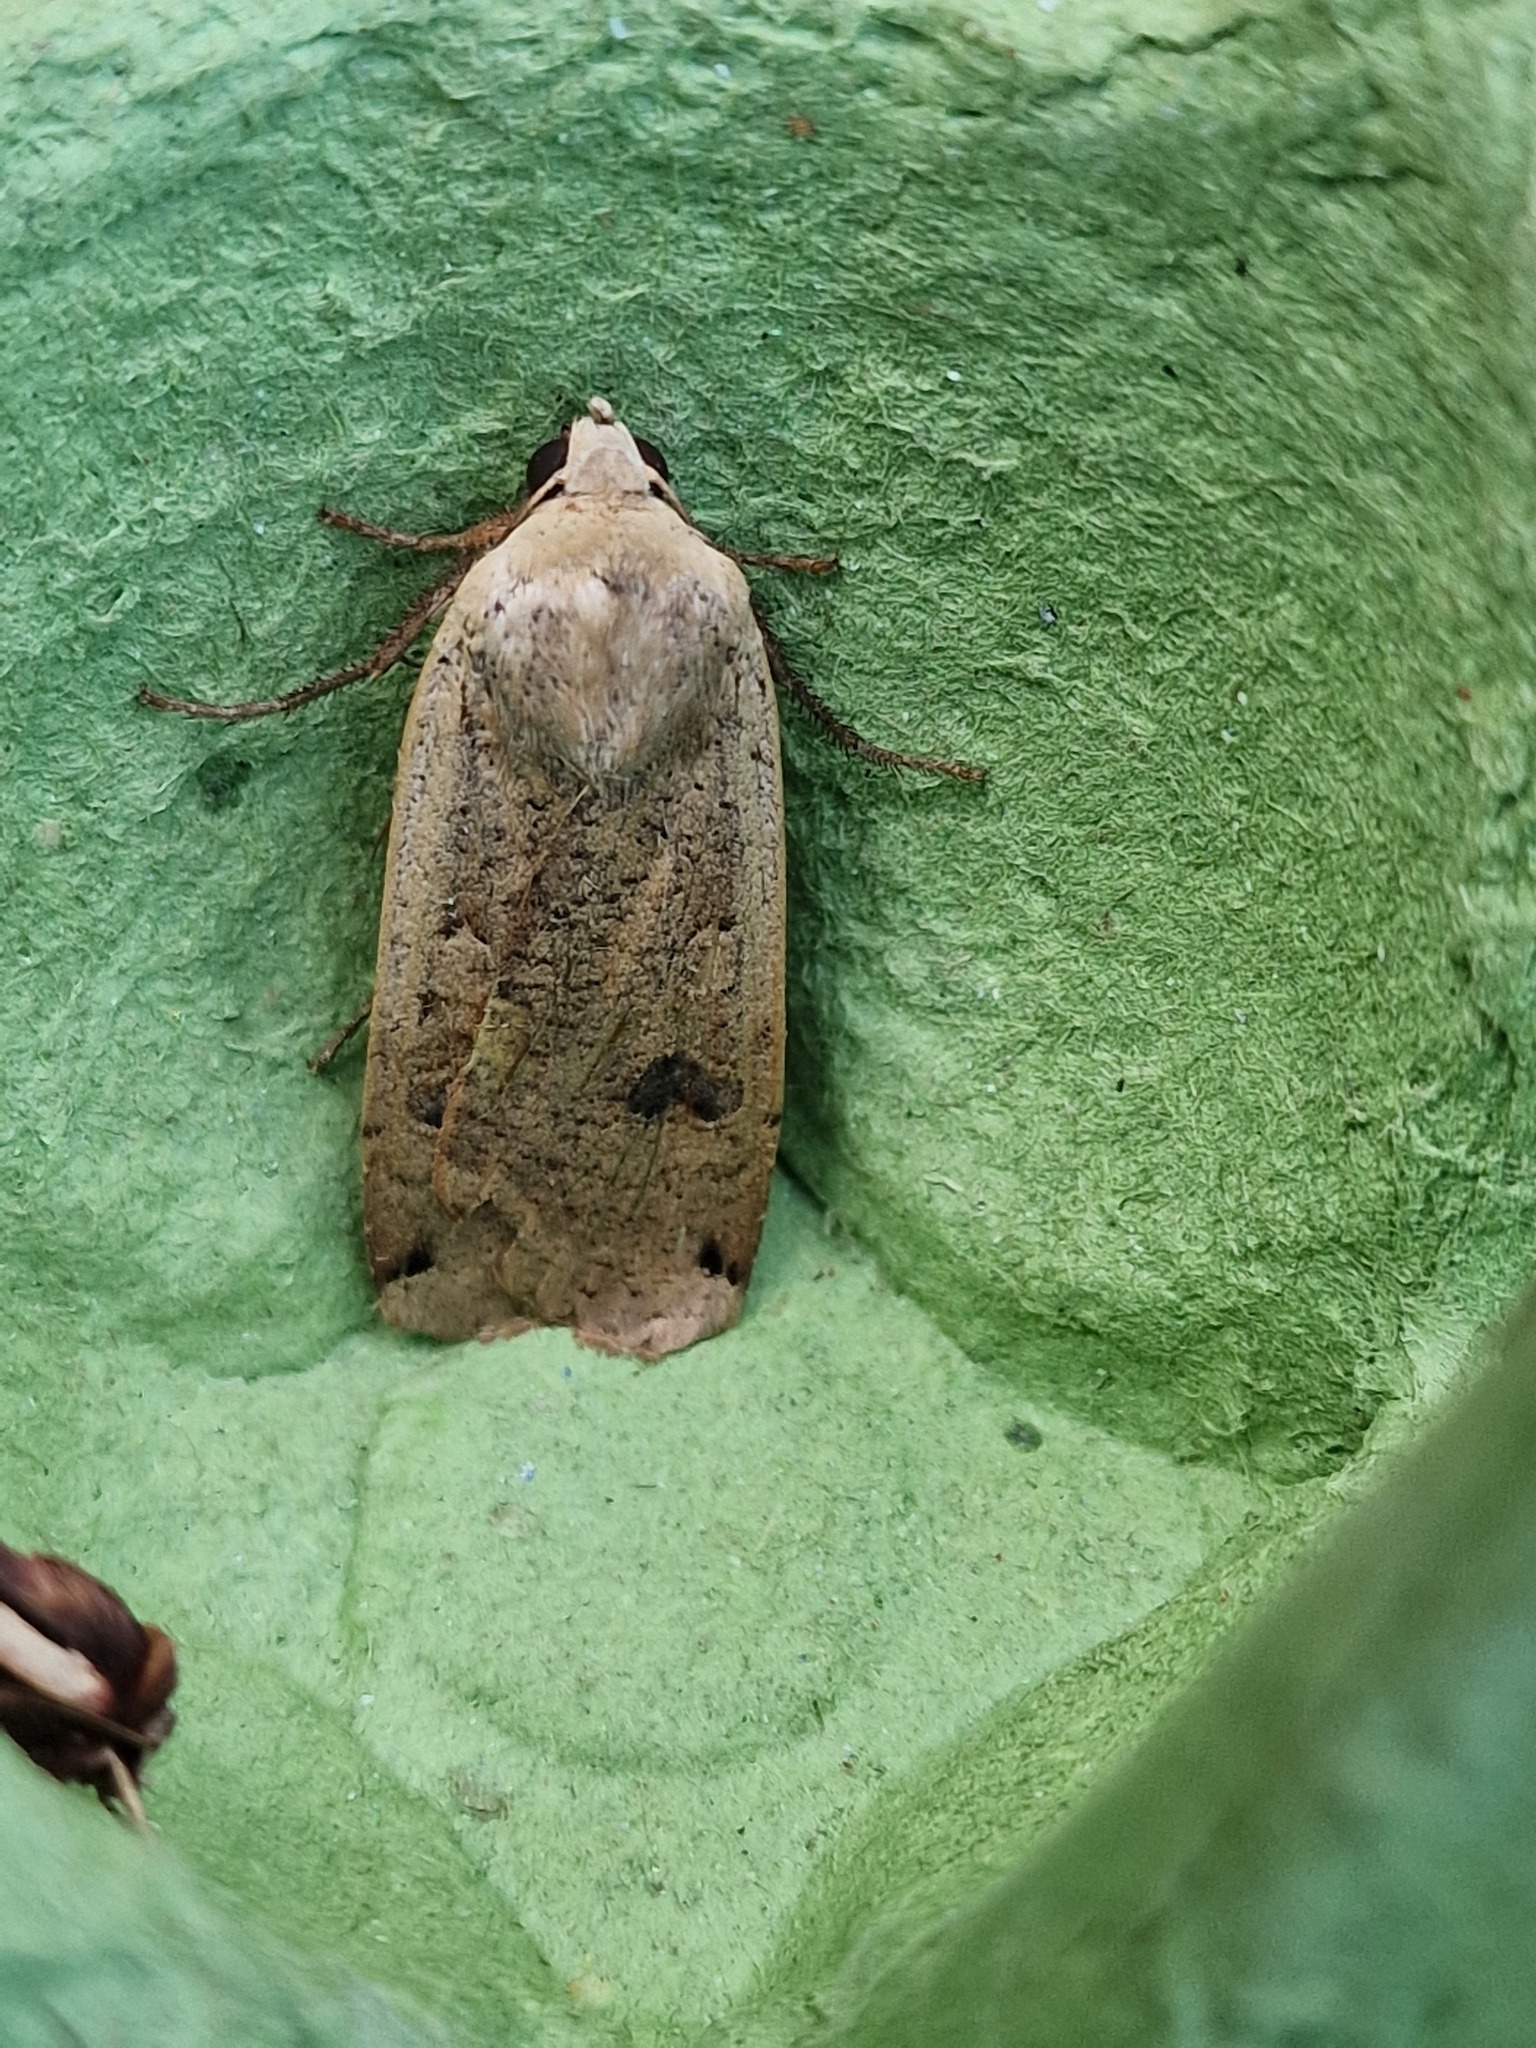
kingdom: Animalia
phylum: Arthropoda
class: Insecta
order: Lepidoptera
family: Noctuidae
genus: Noctua
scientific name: Noctua pronuba
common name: Large yellow underwing
